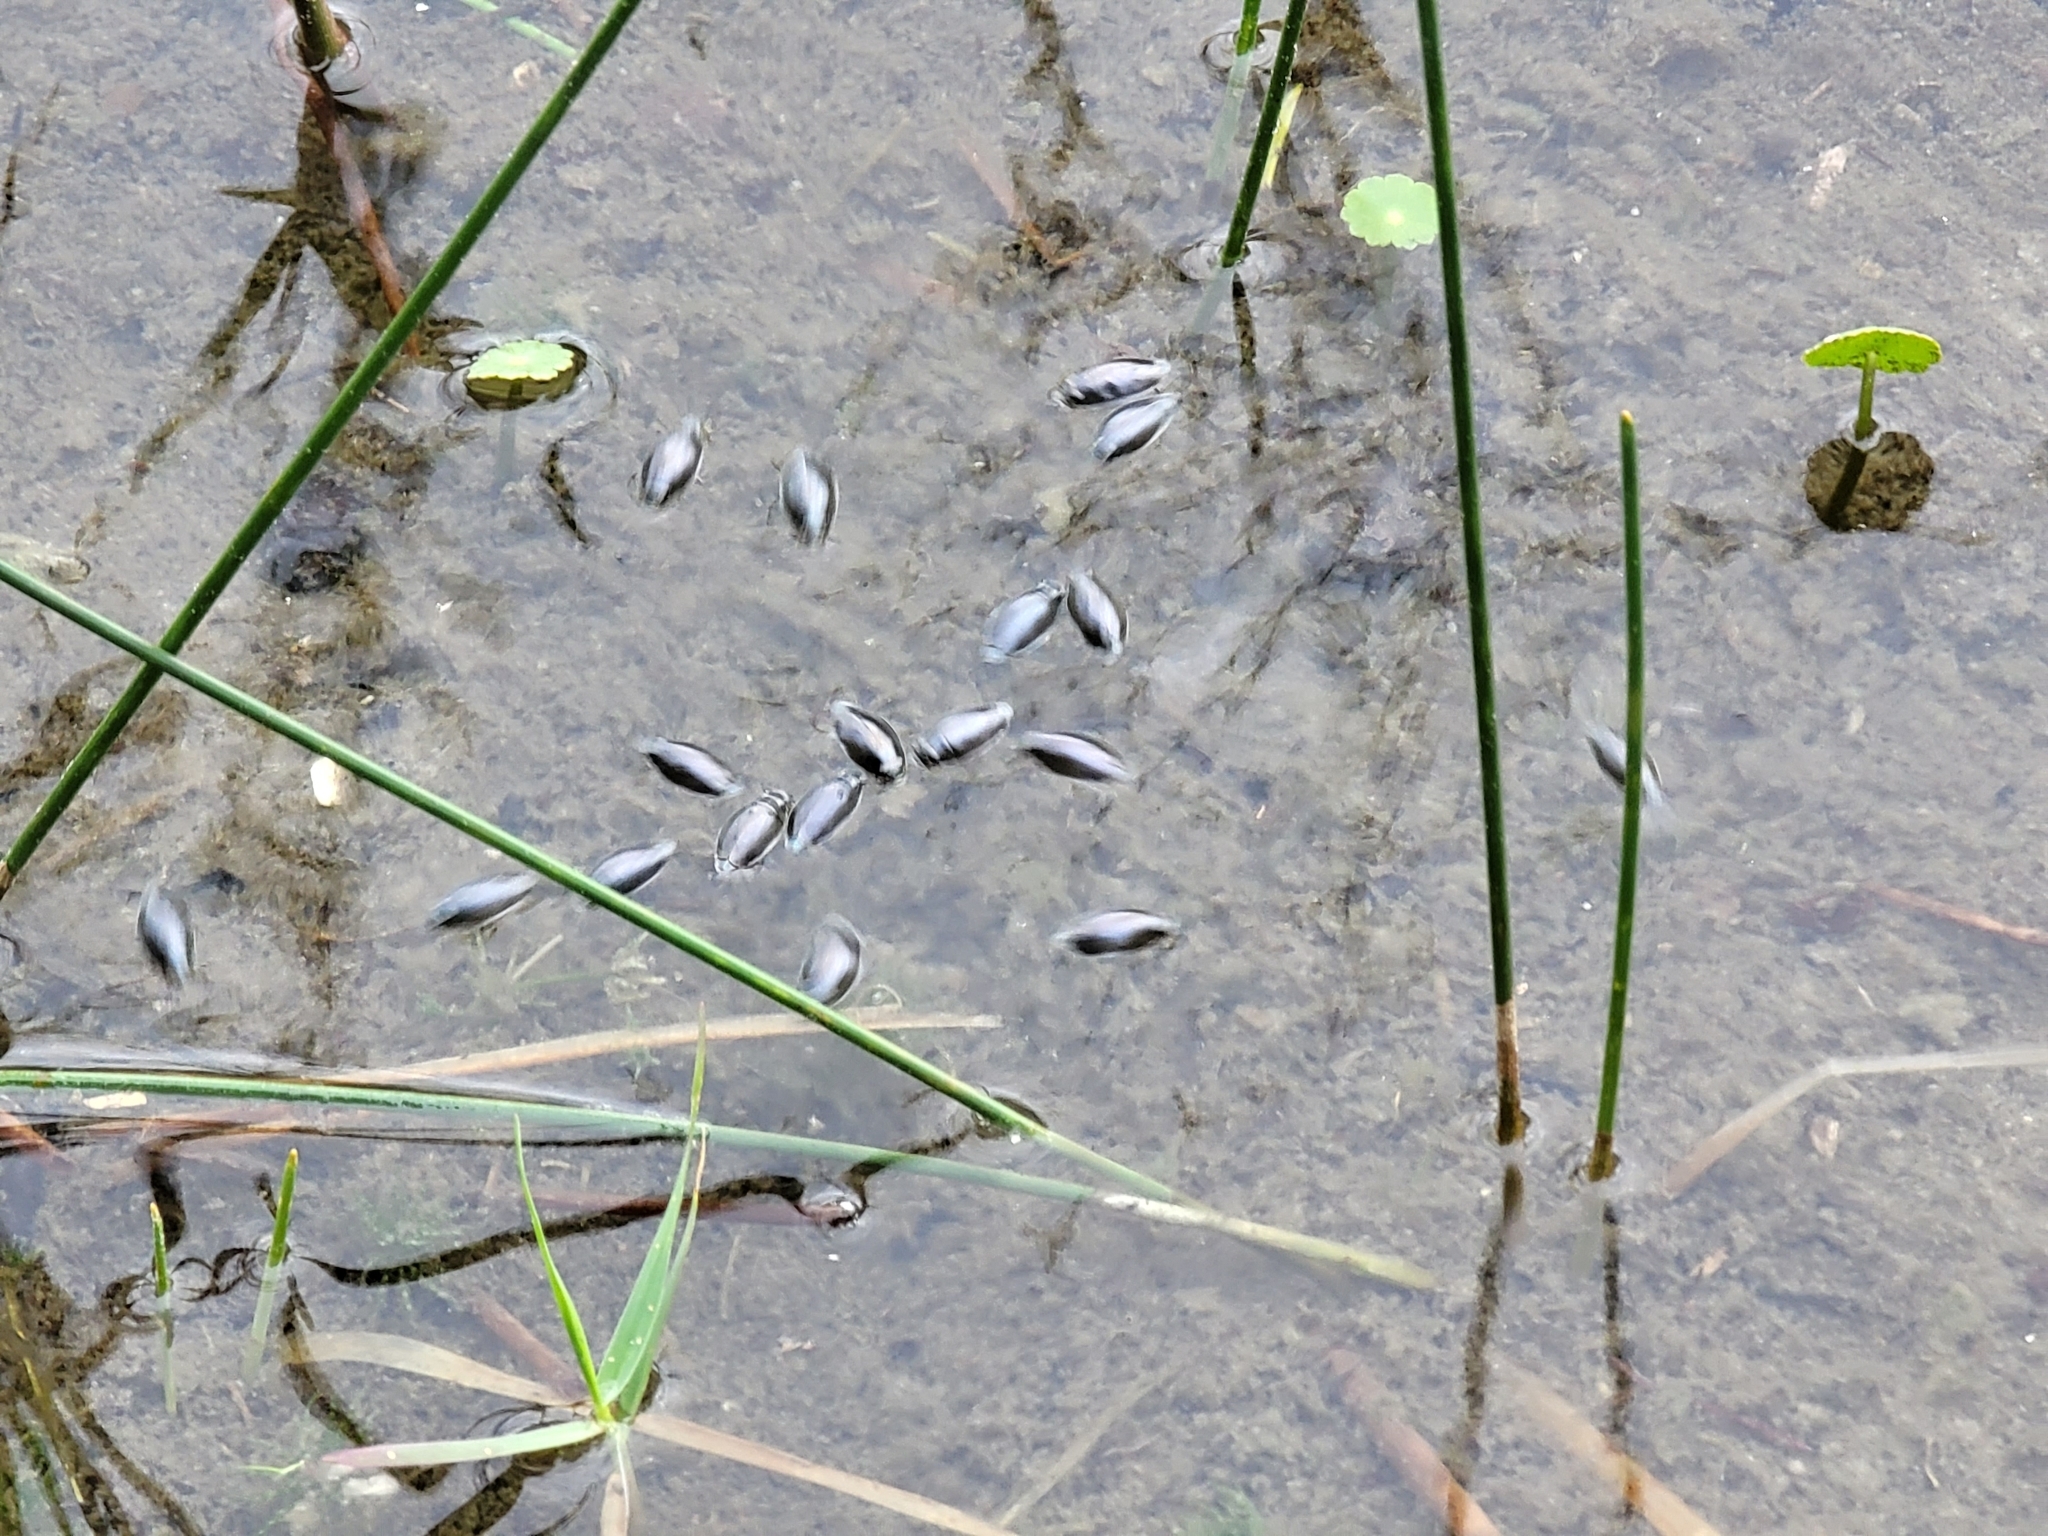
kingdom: Animalia
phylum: Arthropoda
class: Insecta
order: Coleoptera
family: Gyrinidae
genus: Gyrinus
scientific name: Gyrinus
